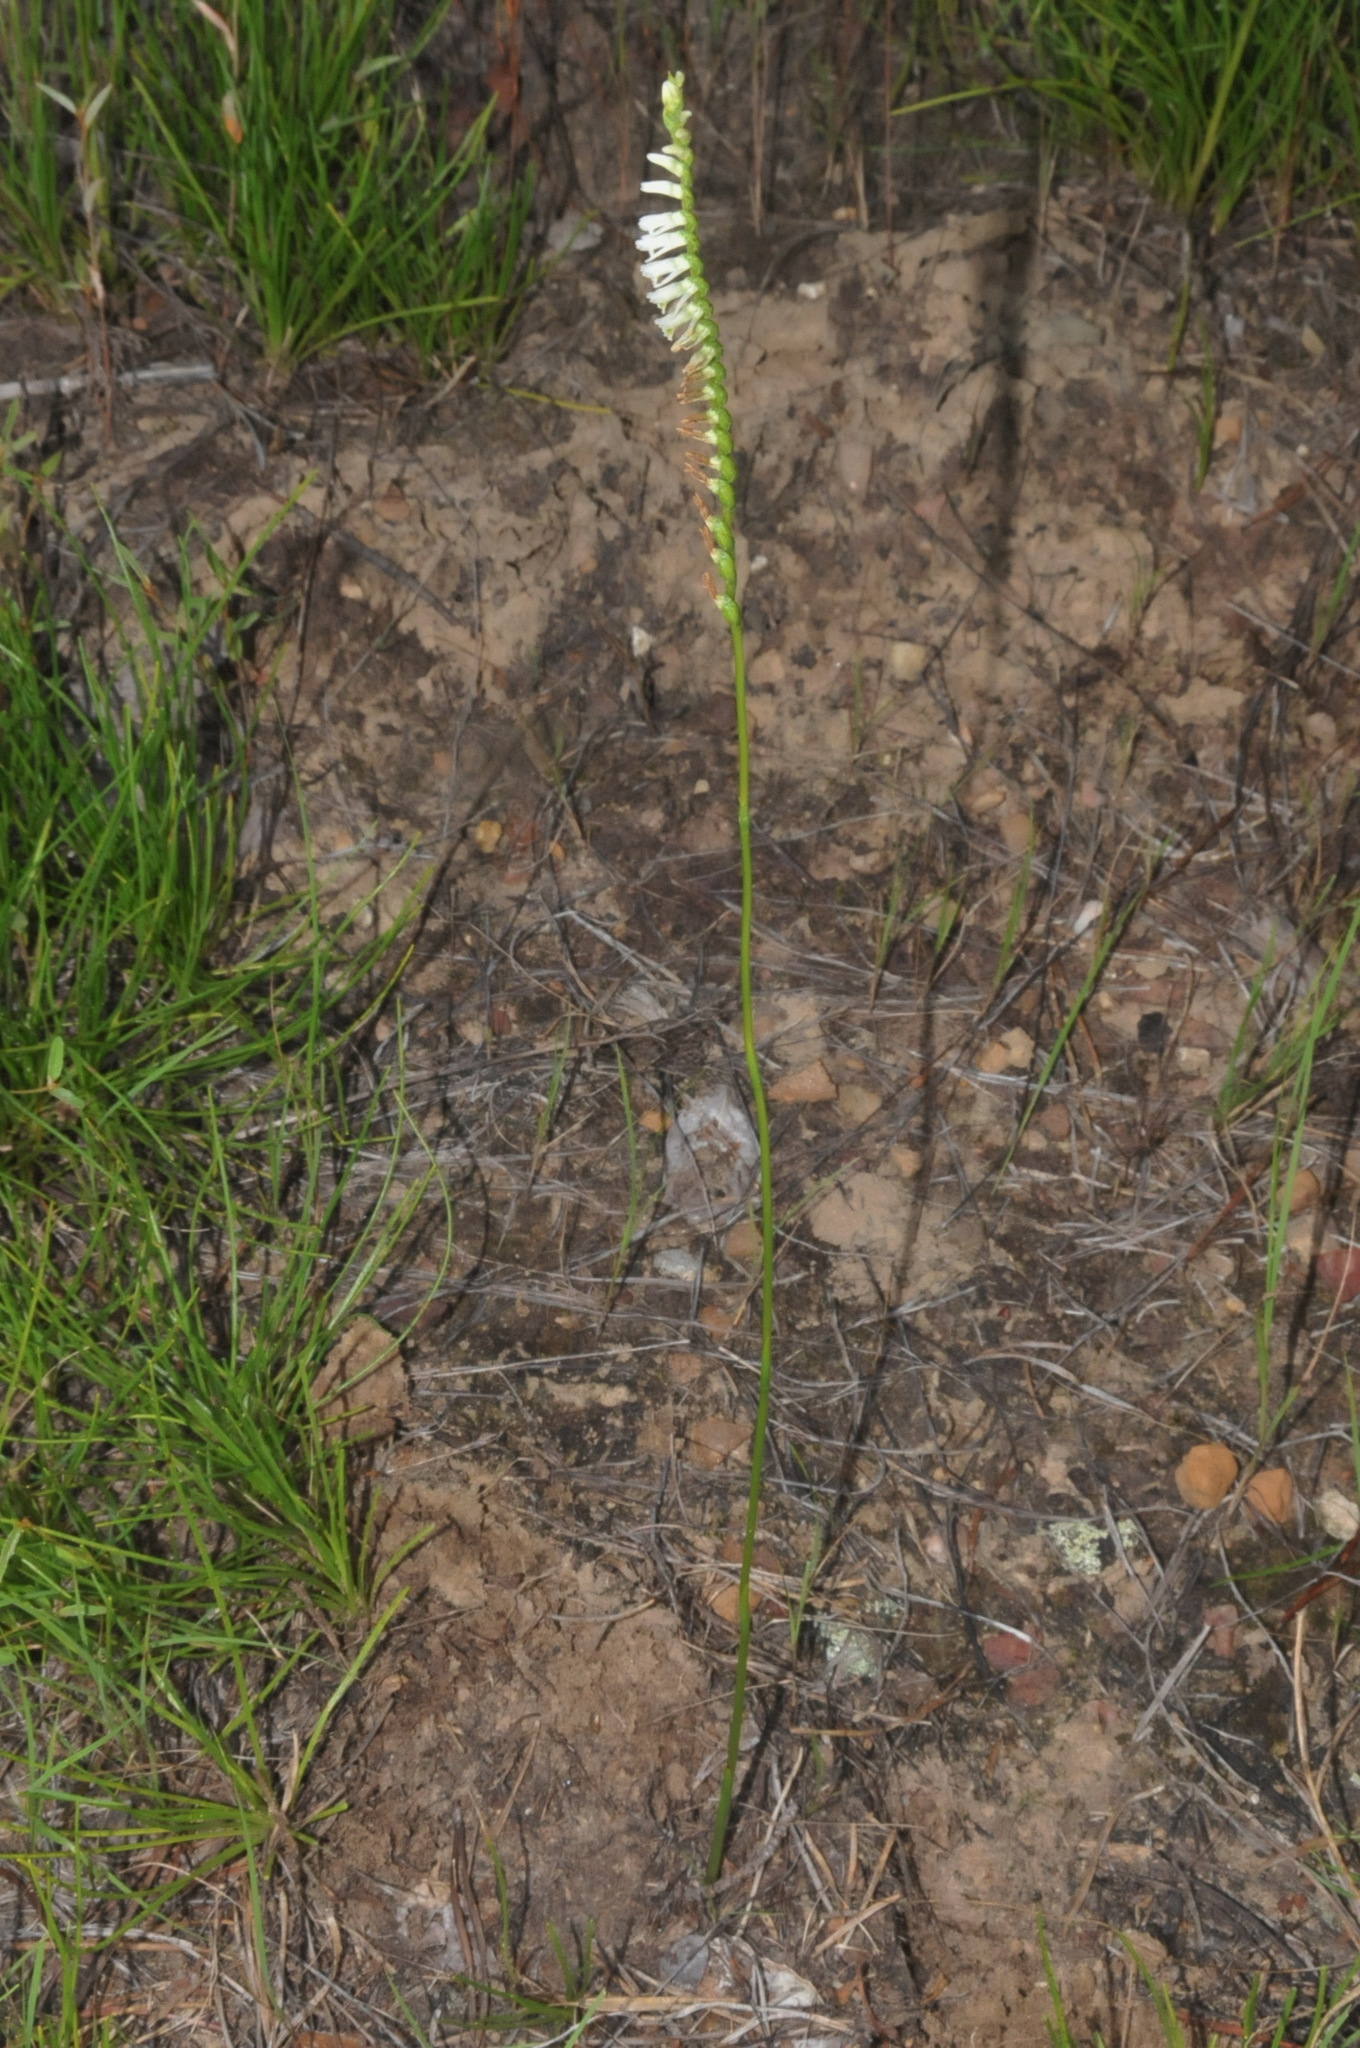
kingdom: Plantae
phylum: Tracheophyta
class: Liliopsida
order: Asparagales
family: Orchidaceae
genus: Spiranthes
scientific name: Spiranthes lacera
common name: Northern slender ladies'-tresses
